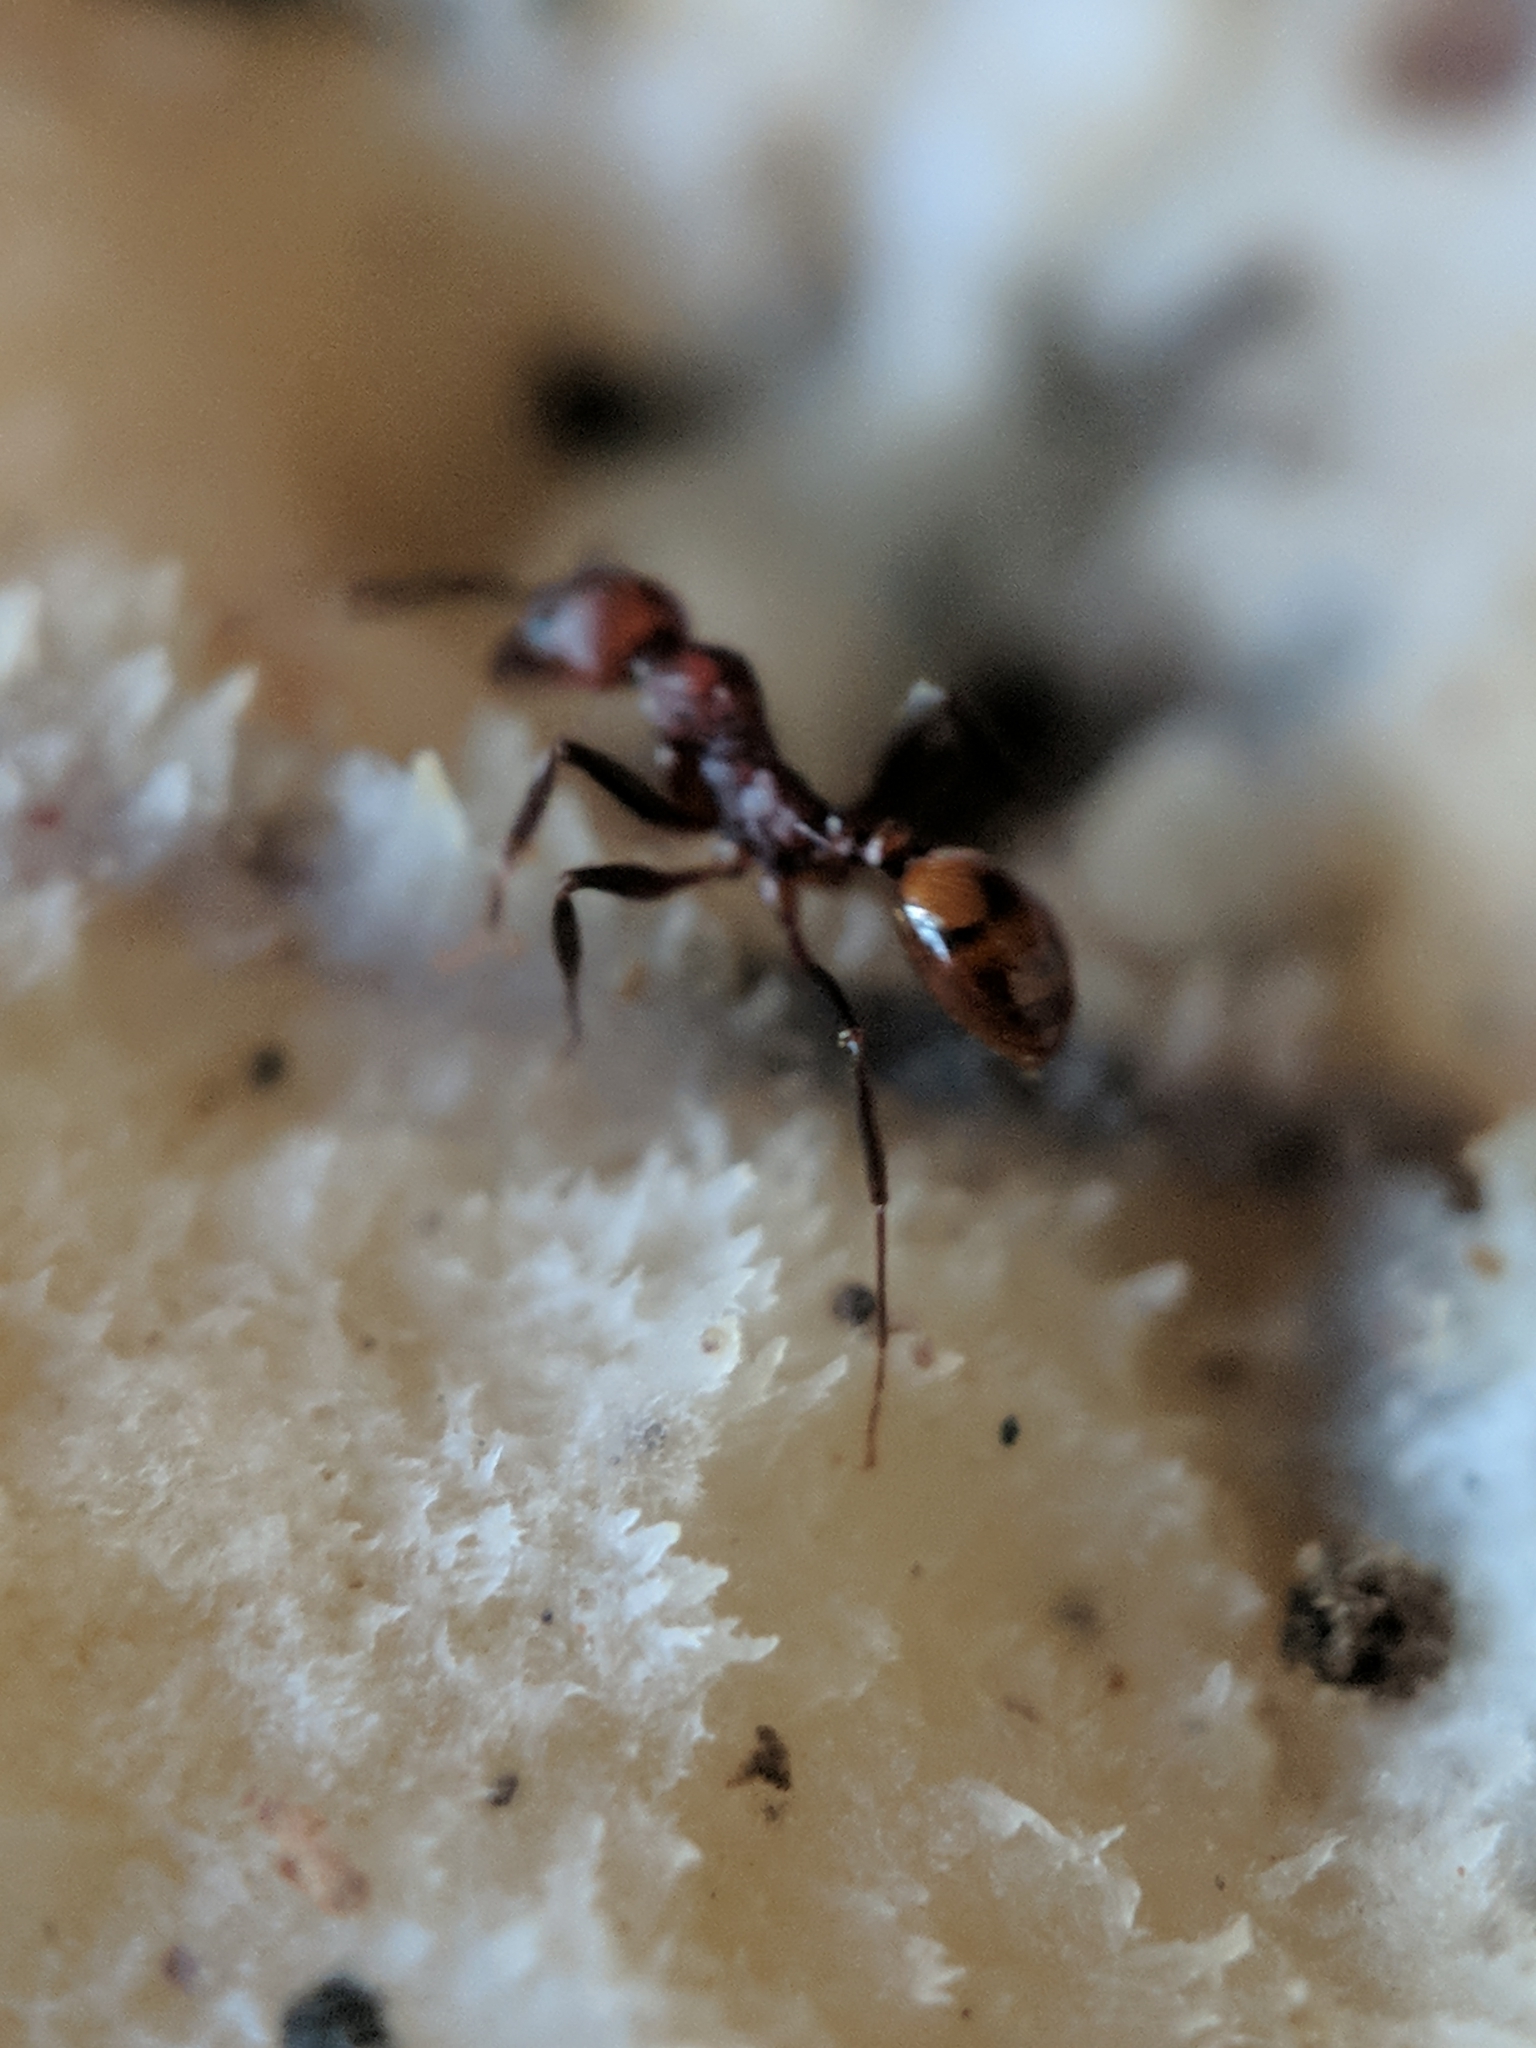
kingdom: Animalia
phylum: Arthropoda
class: Insecta
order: Hymenoptera
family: Formicidae
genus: Aphaenogaster
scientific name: Aphaenogaster tennesseensis
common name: Tennessee thread-waisted ant
